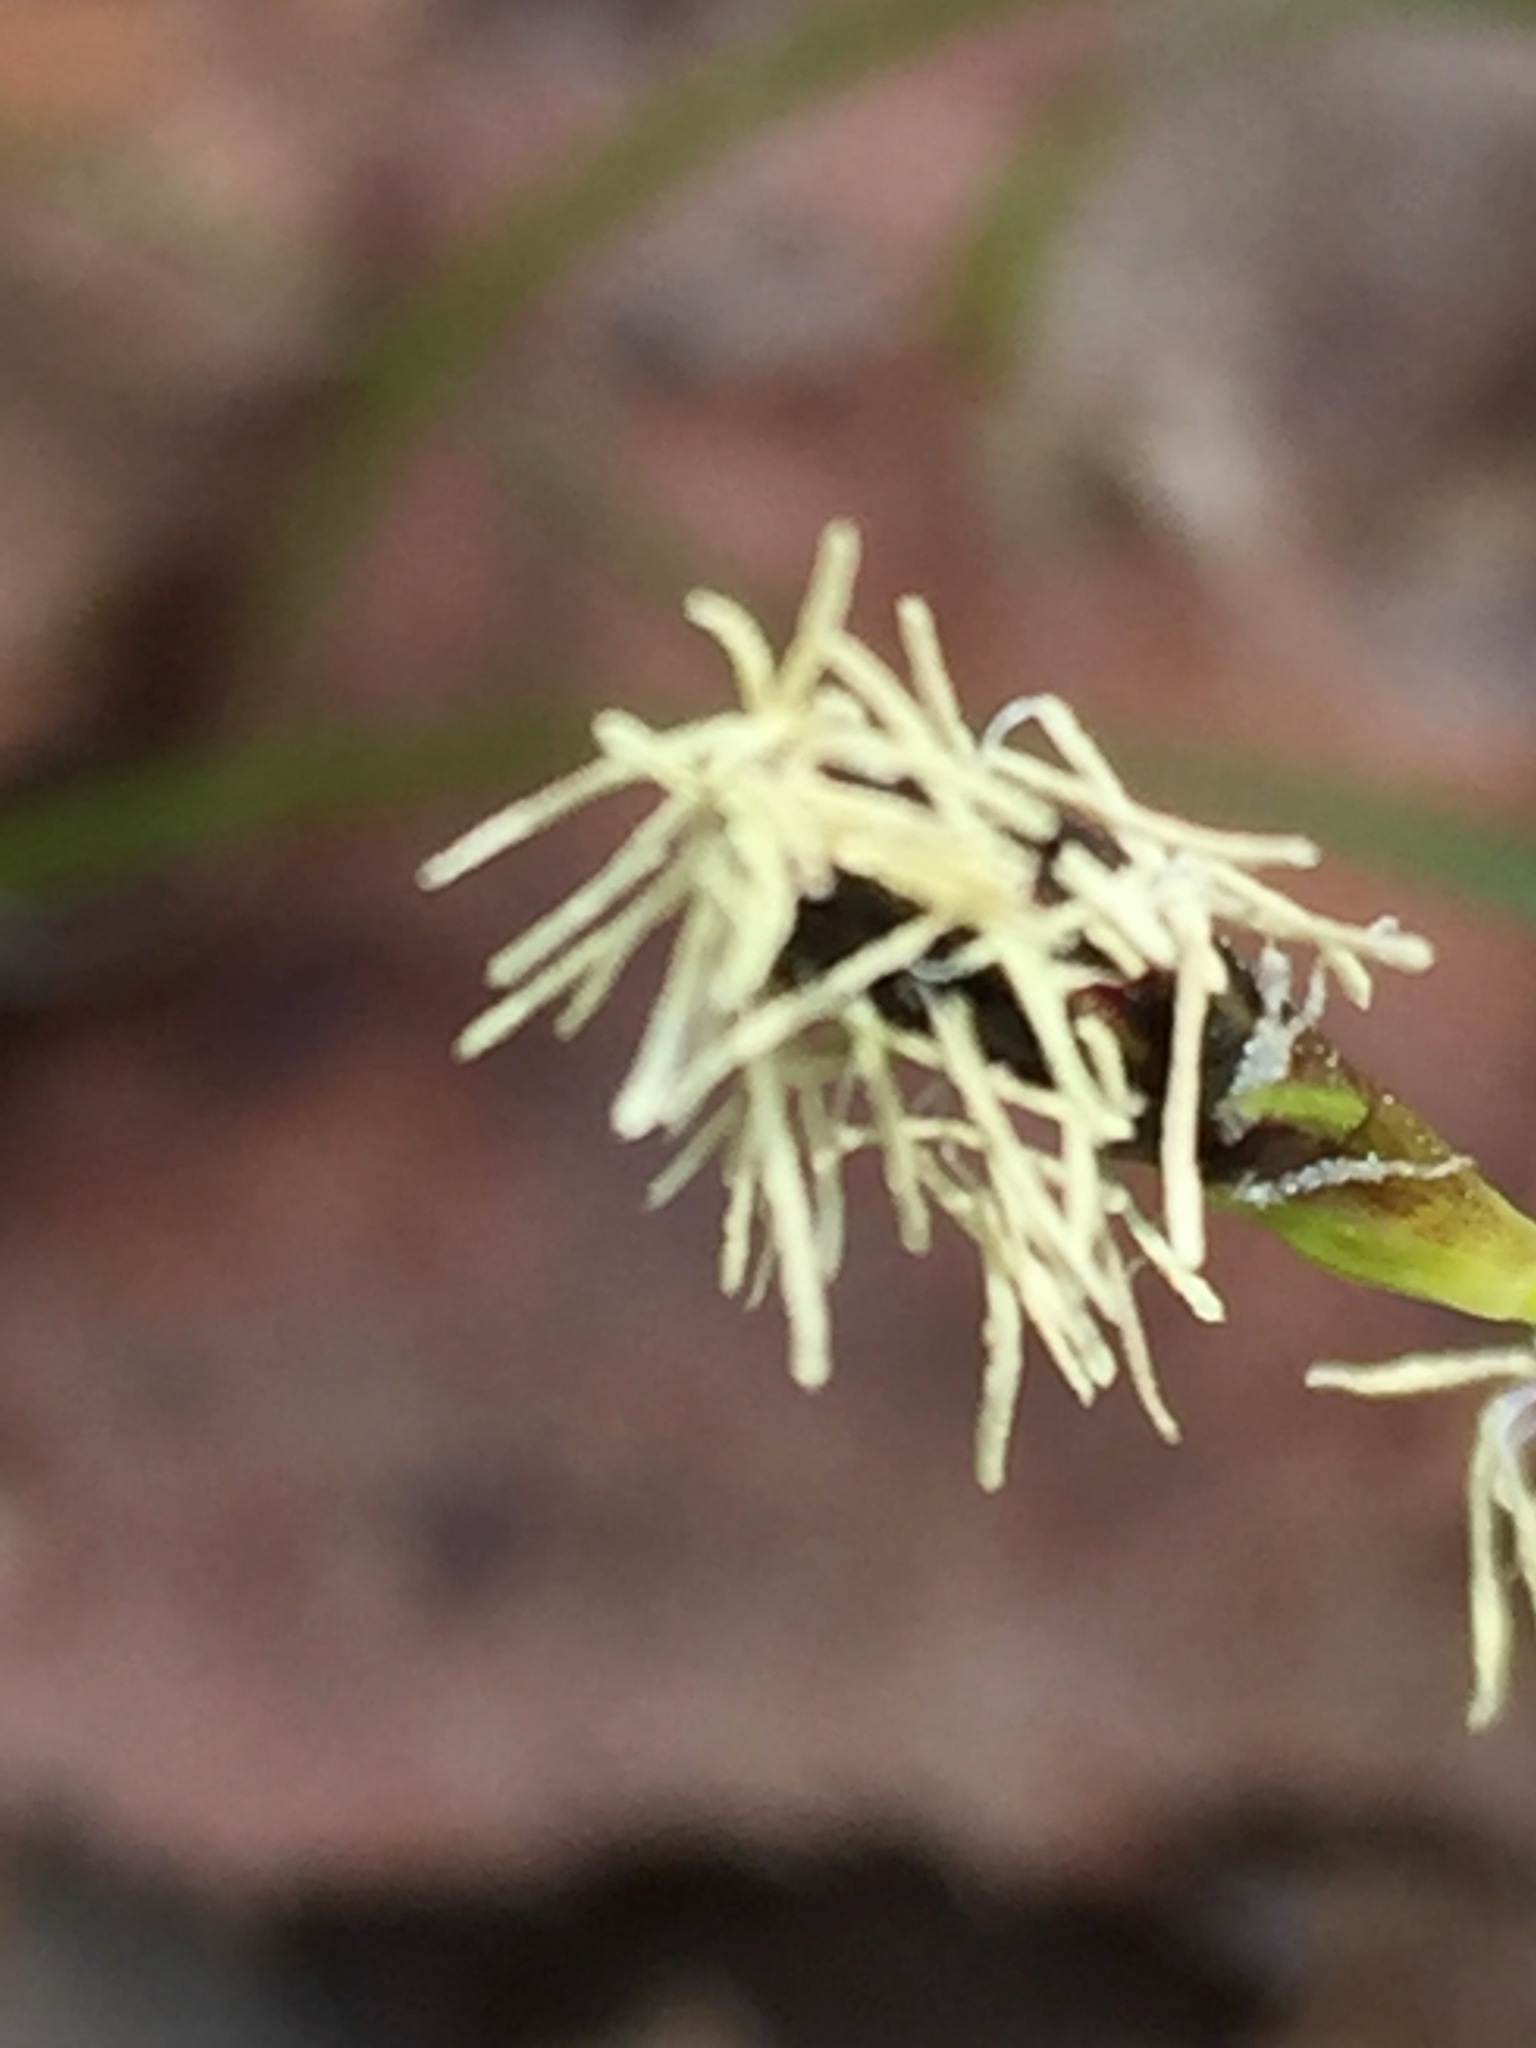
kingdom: Plantae
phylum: Tracheophyta
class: Liliopsida
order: Poales
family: Cyperaceae
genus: Carex
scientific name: Carex pedunculata
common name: Pedunculate sedge
